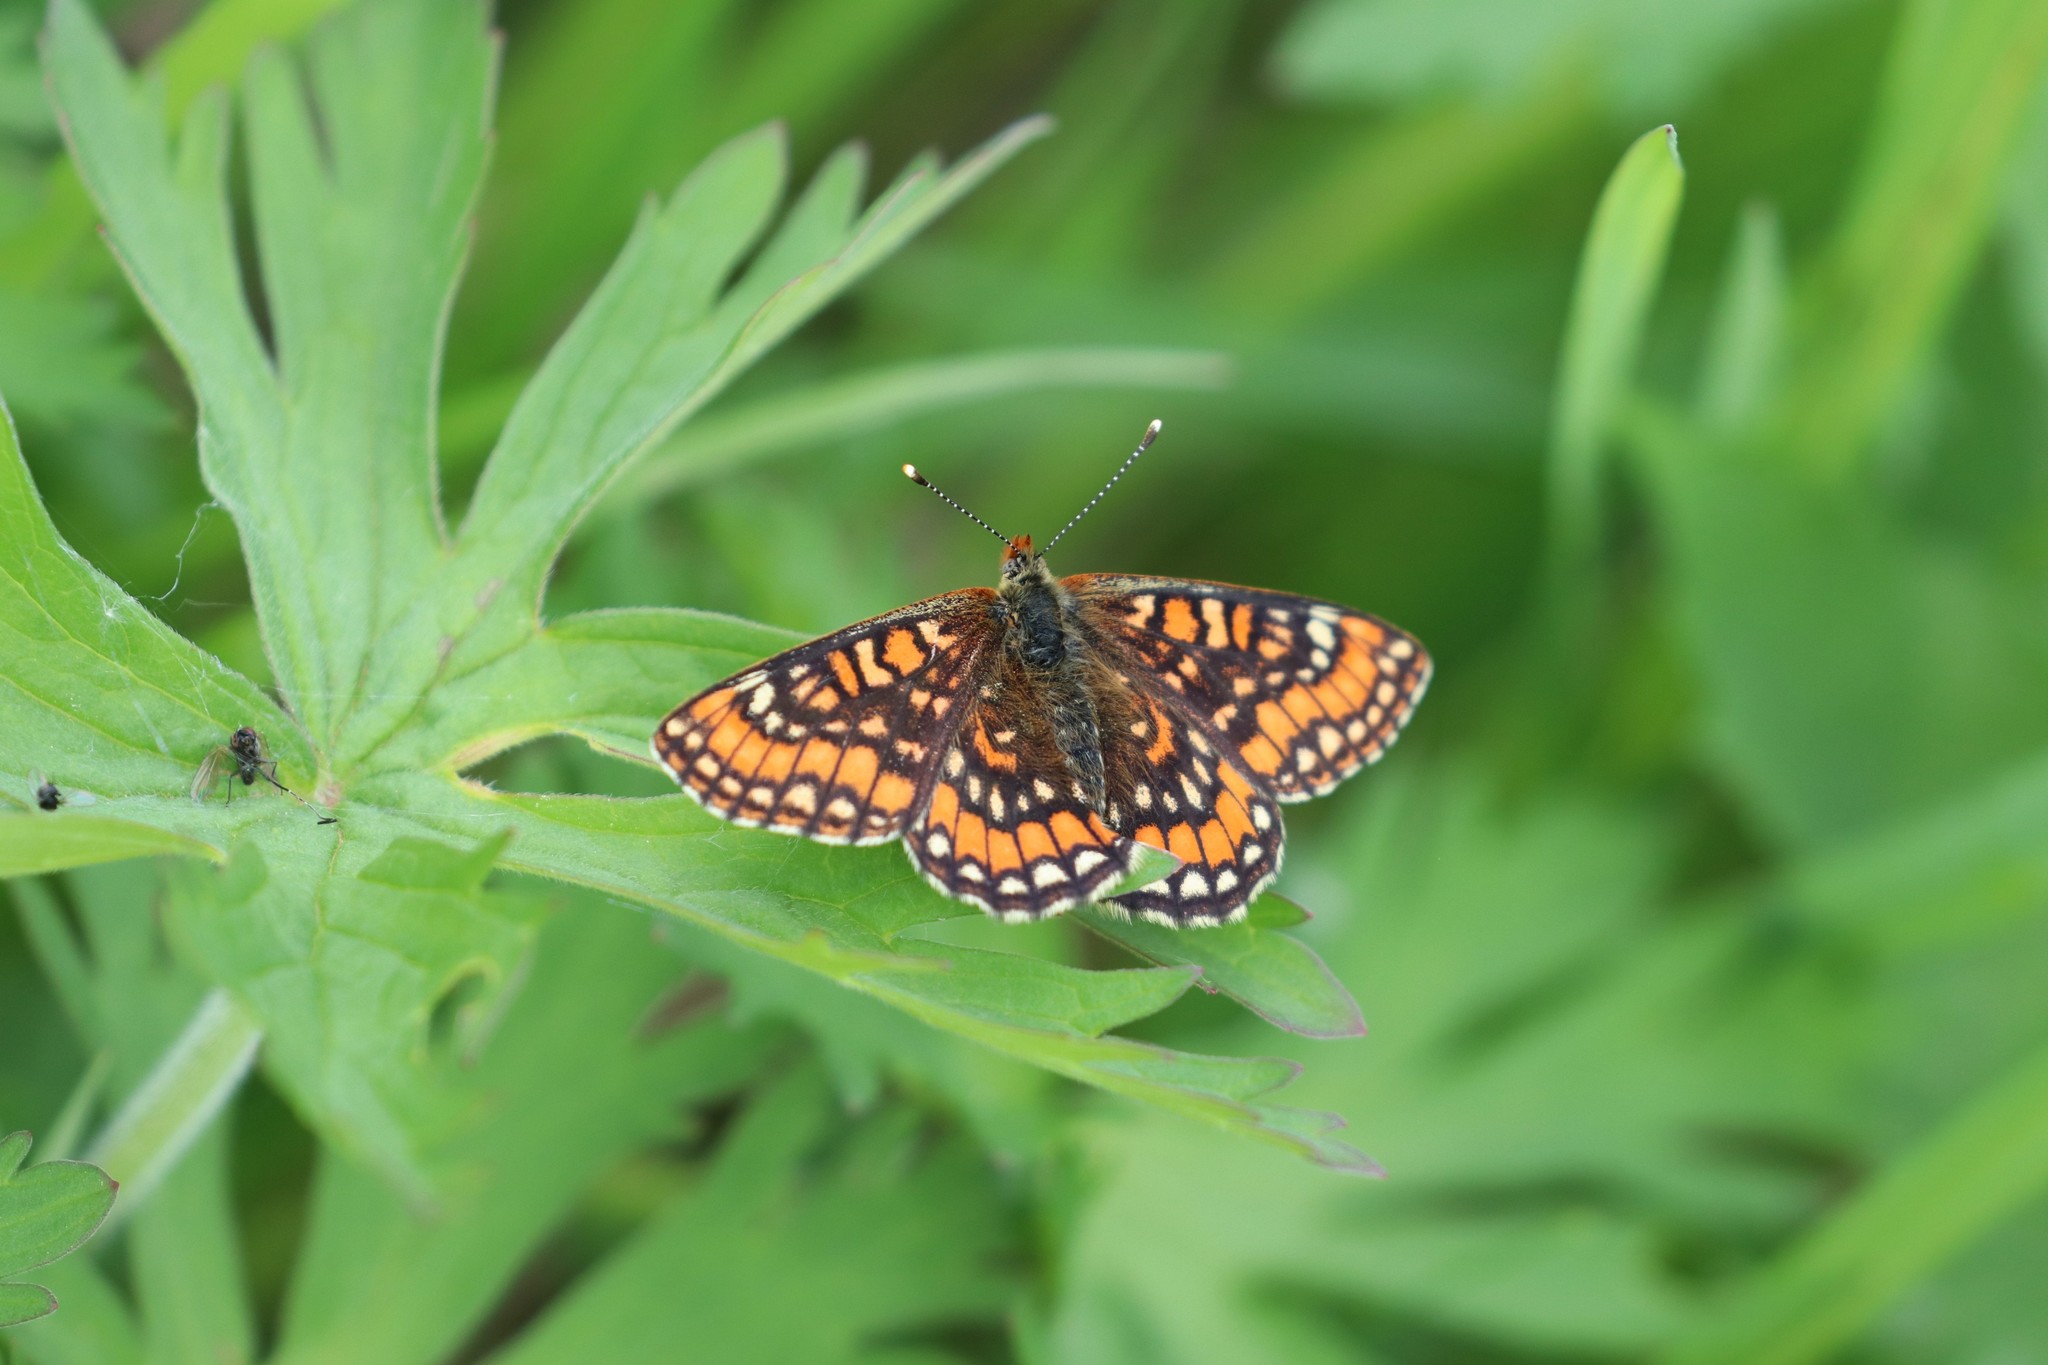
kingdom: Animalia
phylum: Arthropoda
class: Insecta
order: Lepidoptera
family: Nymphalidae
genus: Euphydryas
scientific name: Euphydryas maturna
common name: Scarce fritillary
